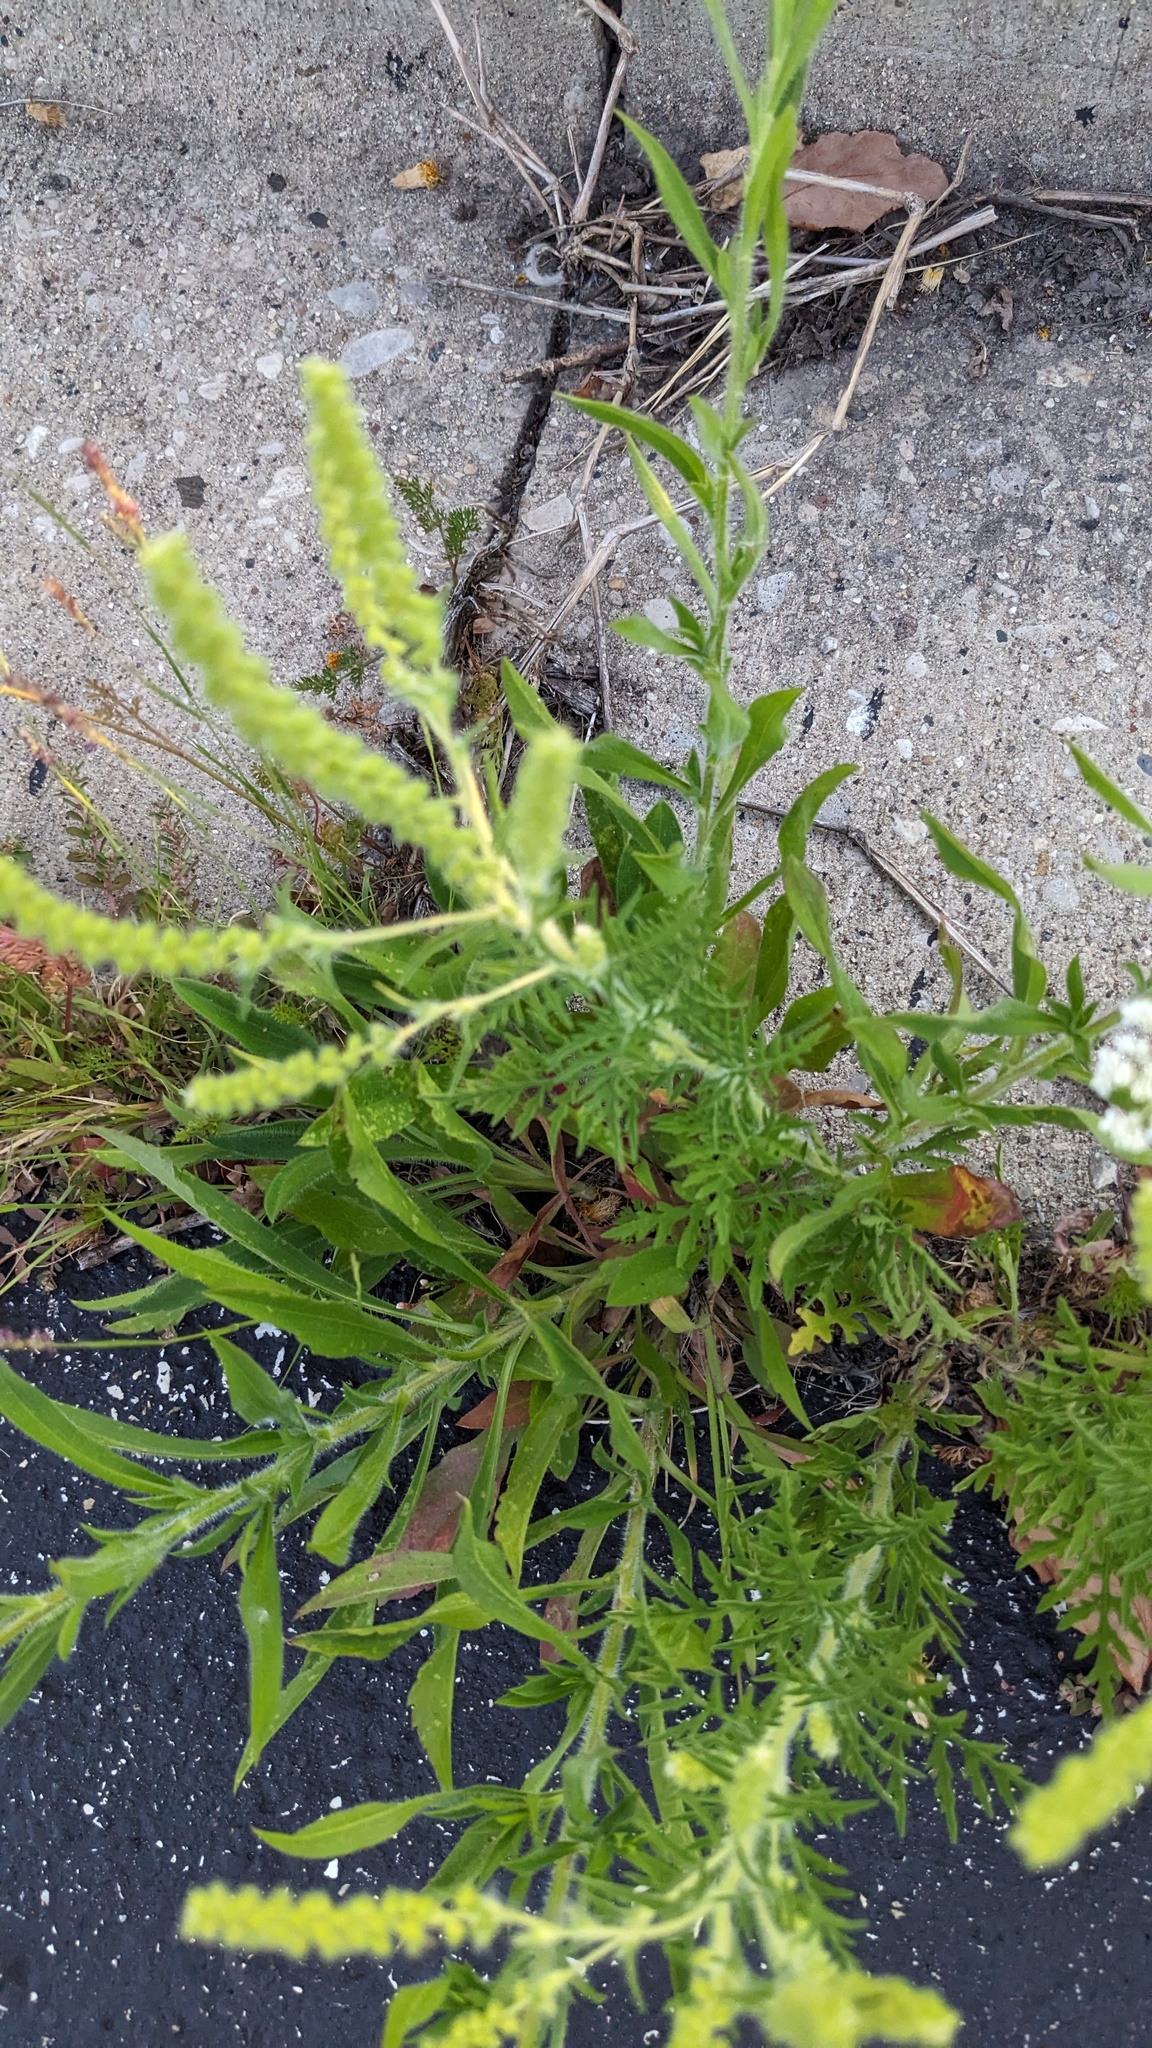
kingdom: Plantae
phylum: Tracheophyta
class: Magnoliopsida
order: Asterales
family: Asteraceae
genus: Ambrosia
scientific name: Ambrosia artemisiifolia
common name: Annual ragweed
